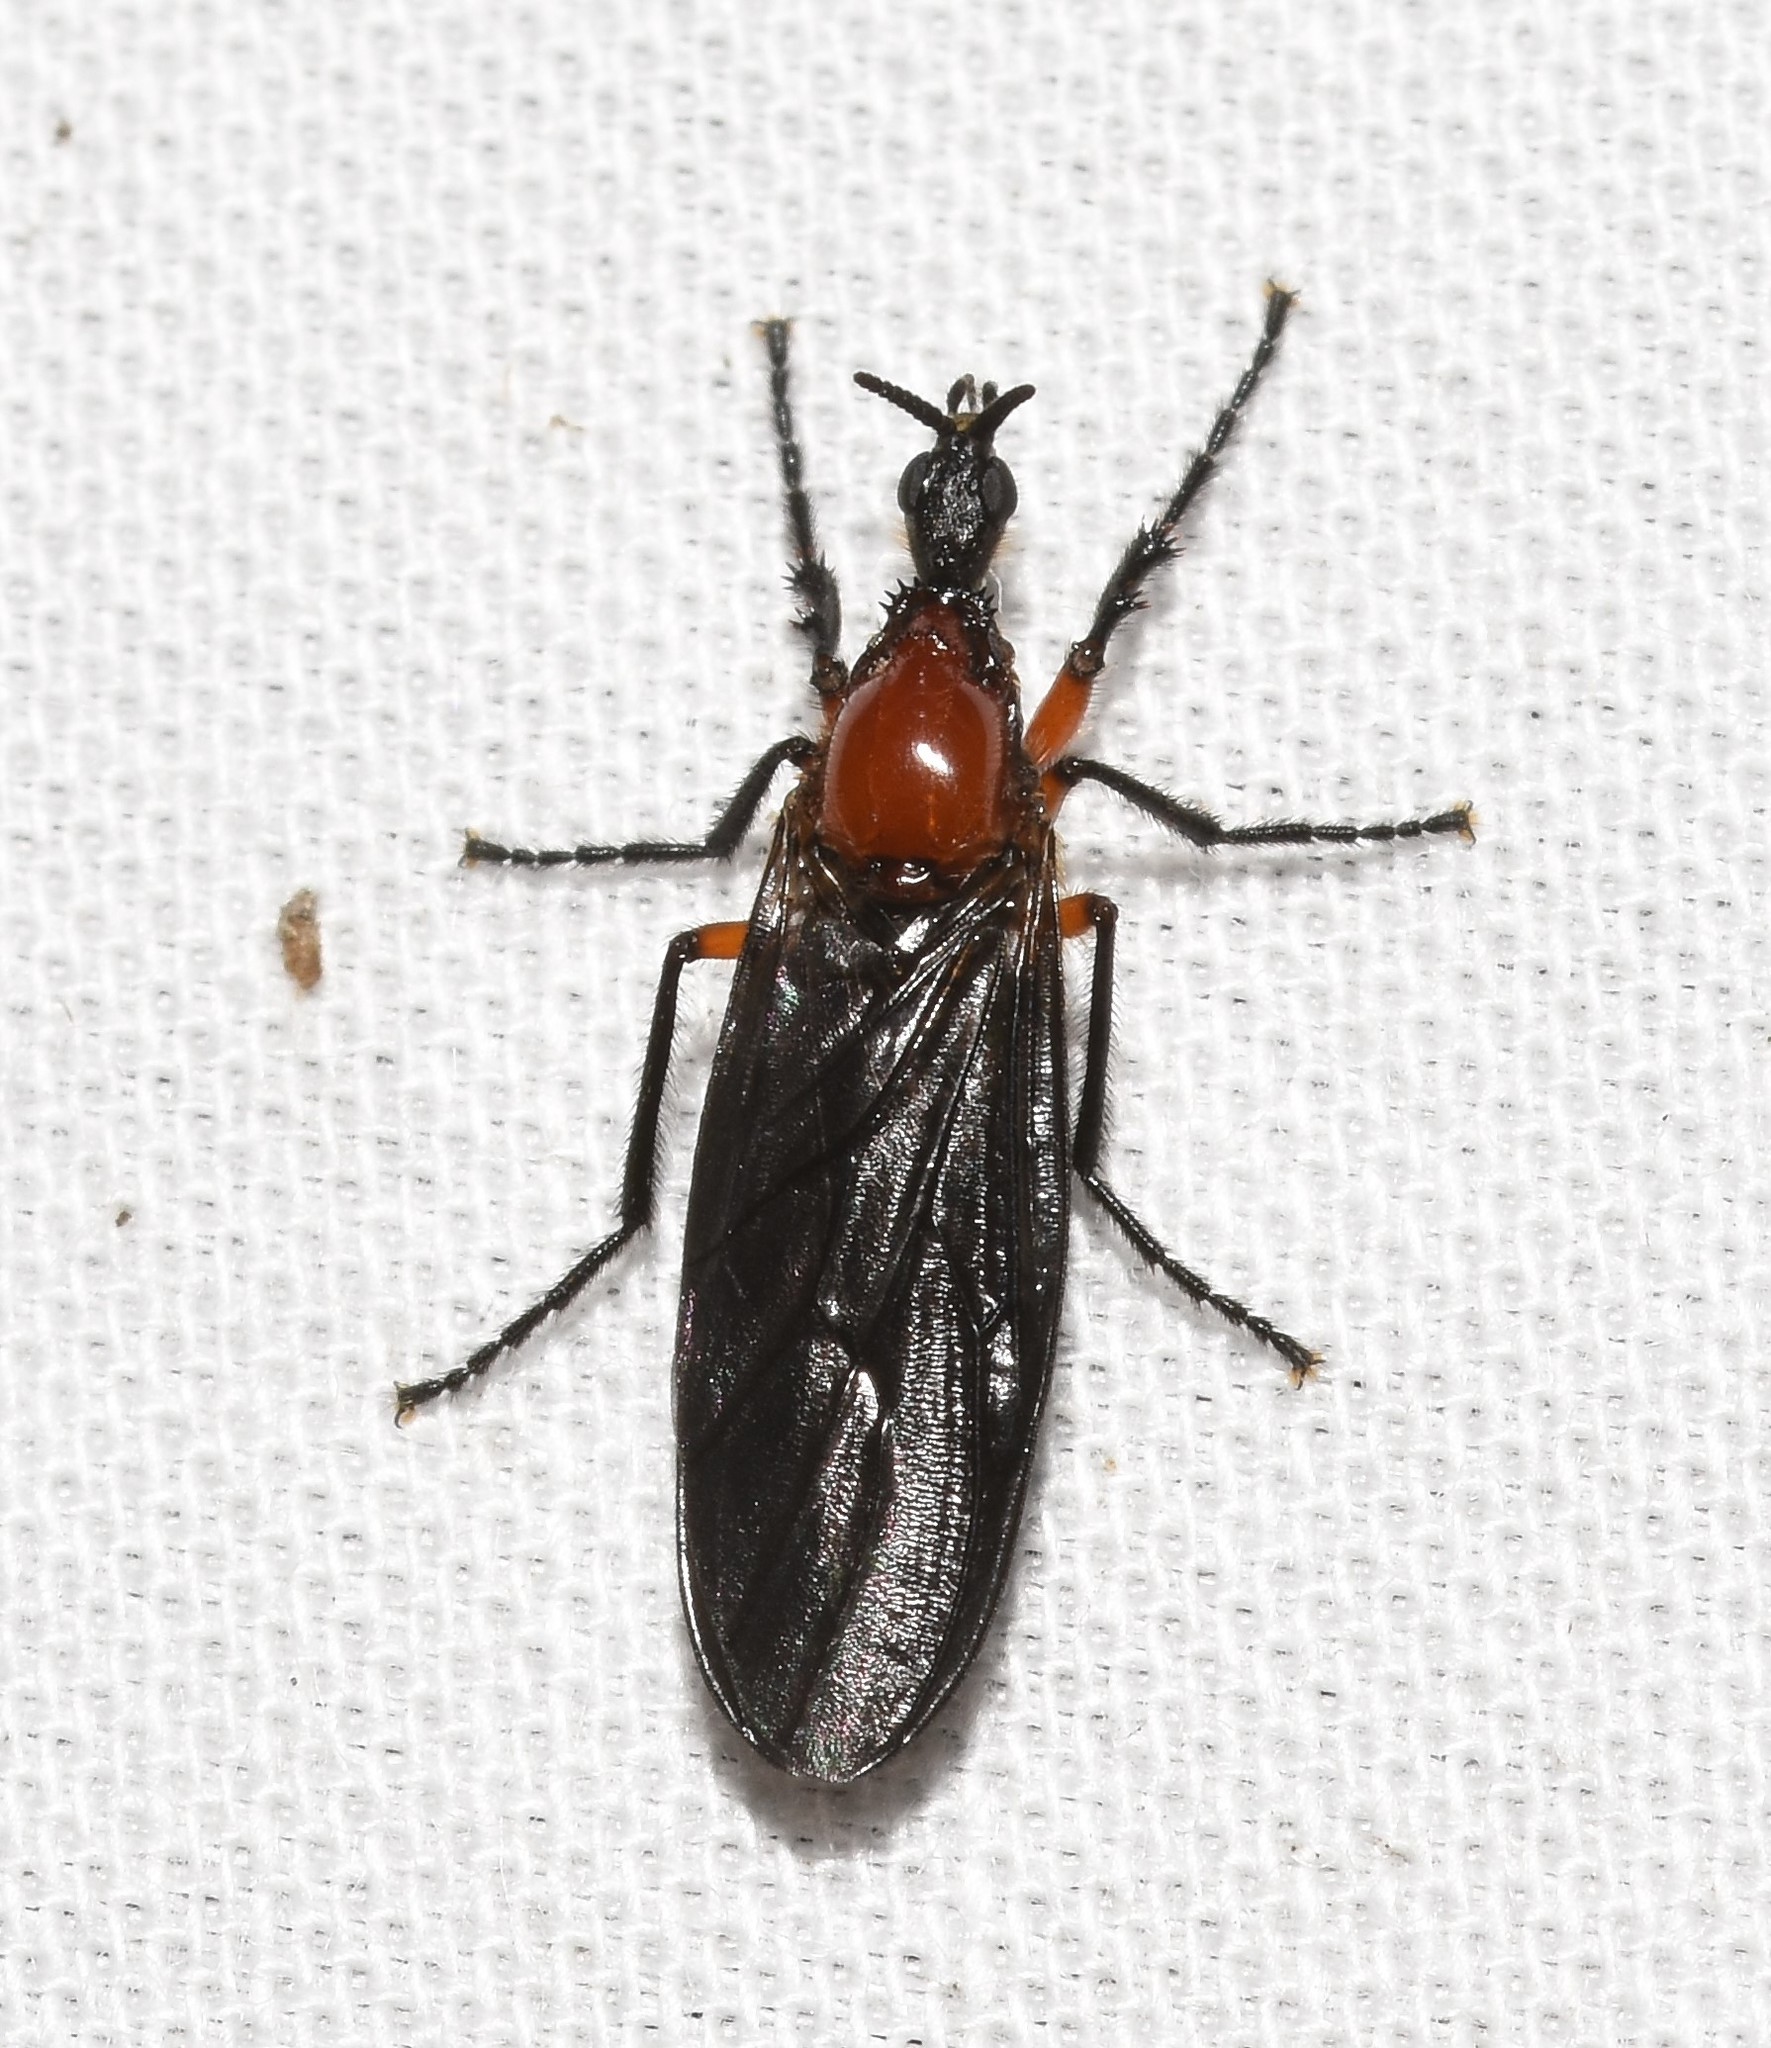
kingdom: Animalia
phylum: Arthropoda
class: Insecta
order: Diptera
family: Bibionidae
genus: Dilophus
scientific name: Dilophus serotinus
